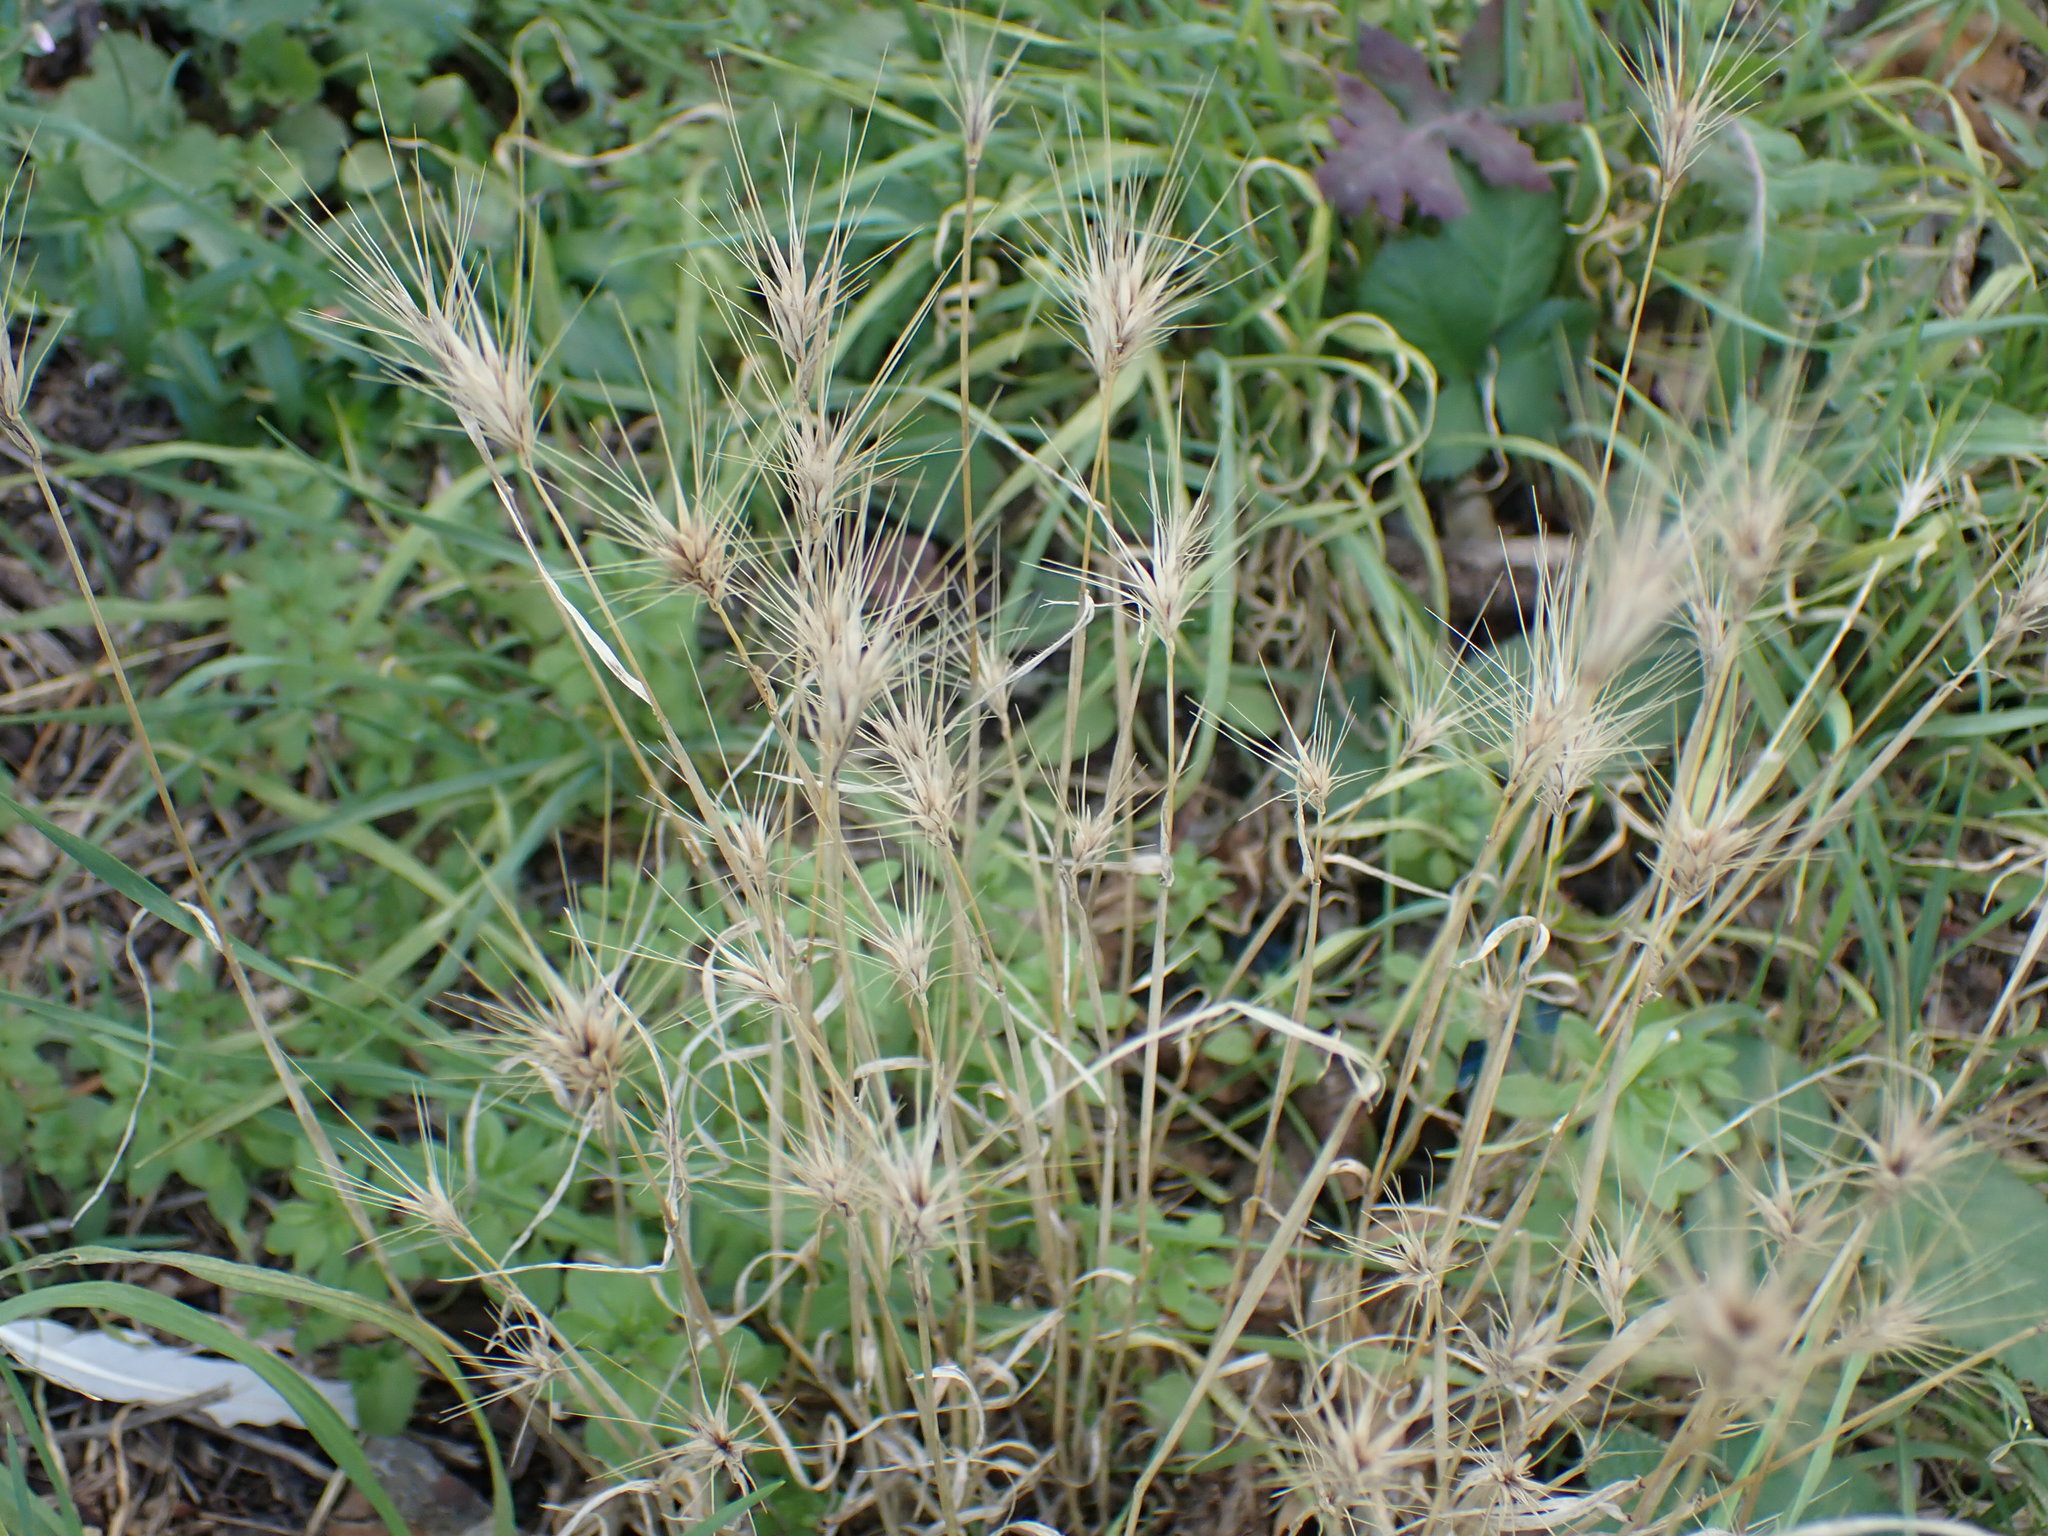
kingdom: Plantae
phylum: Tracheophyta
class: Liliopsida
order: Poales
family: Poaceae
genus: Hordeum
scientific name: Hordeum murinum
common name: Wall barley
